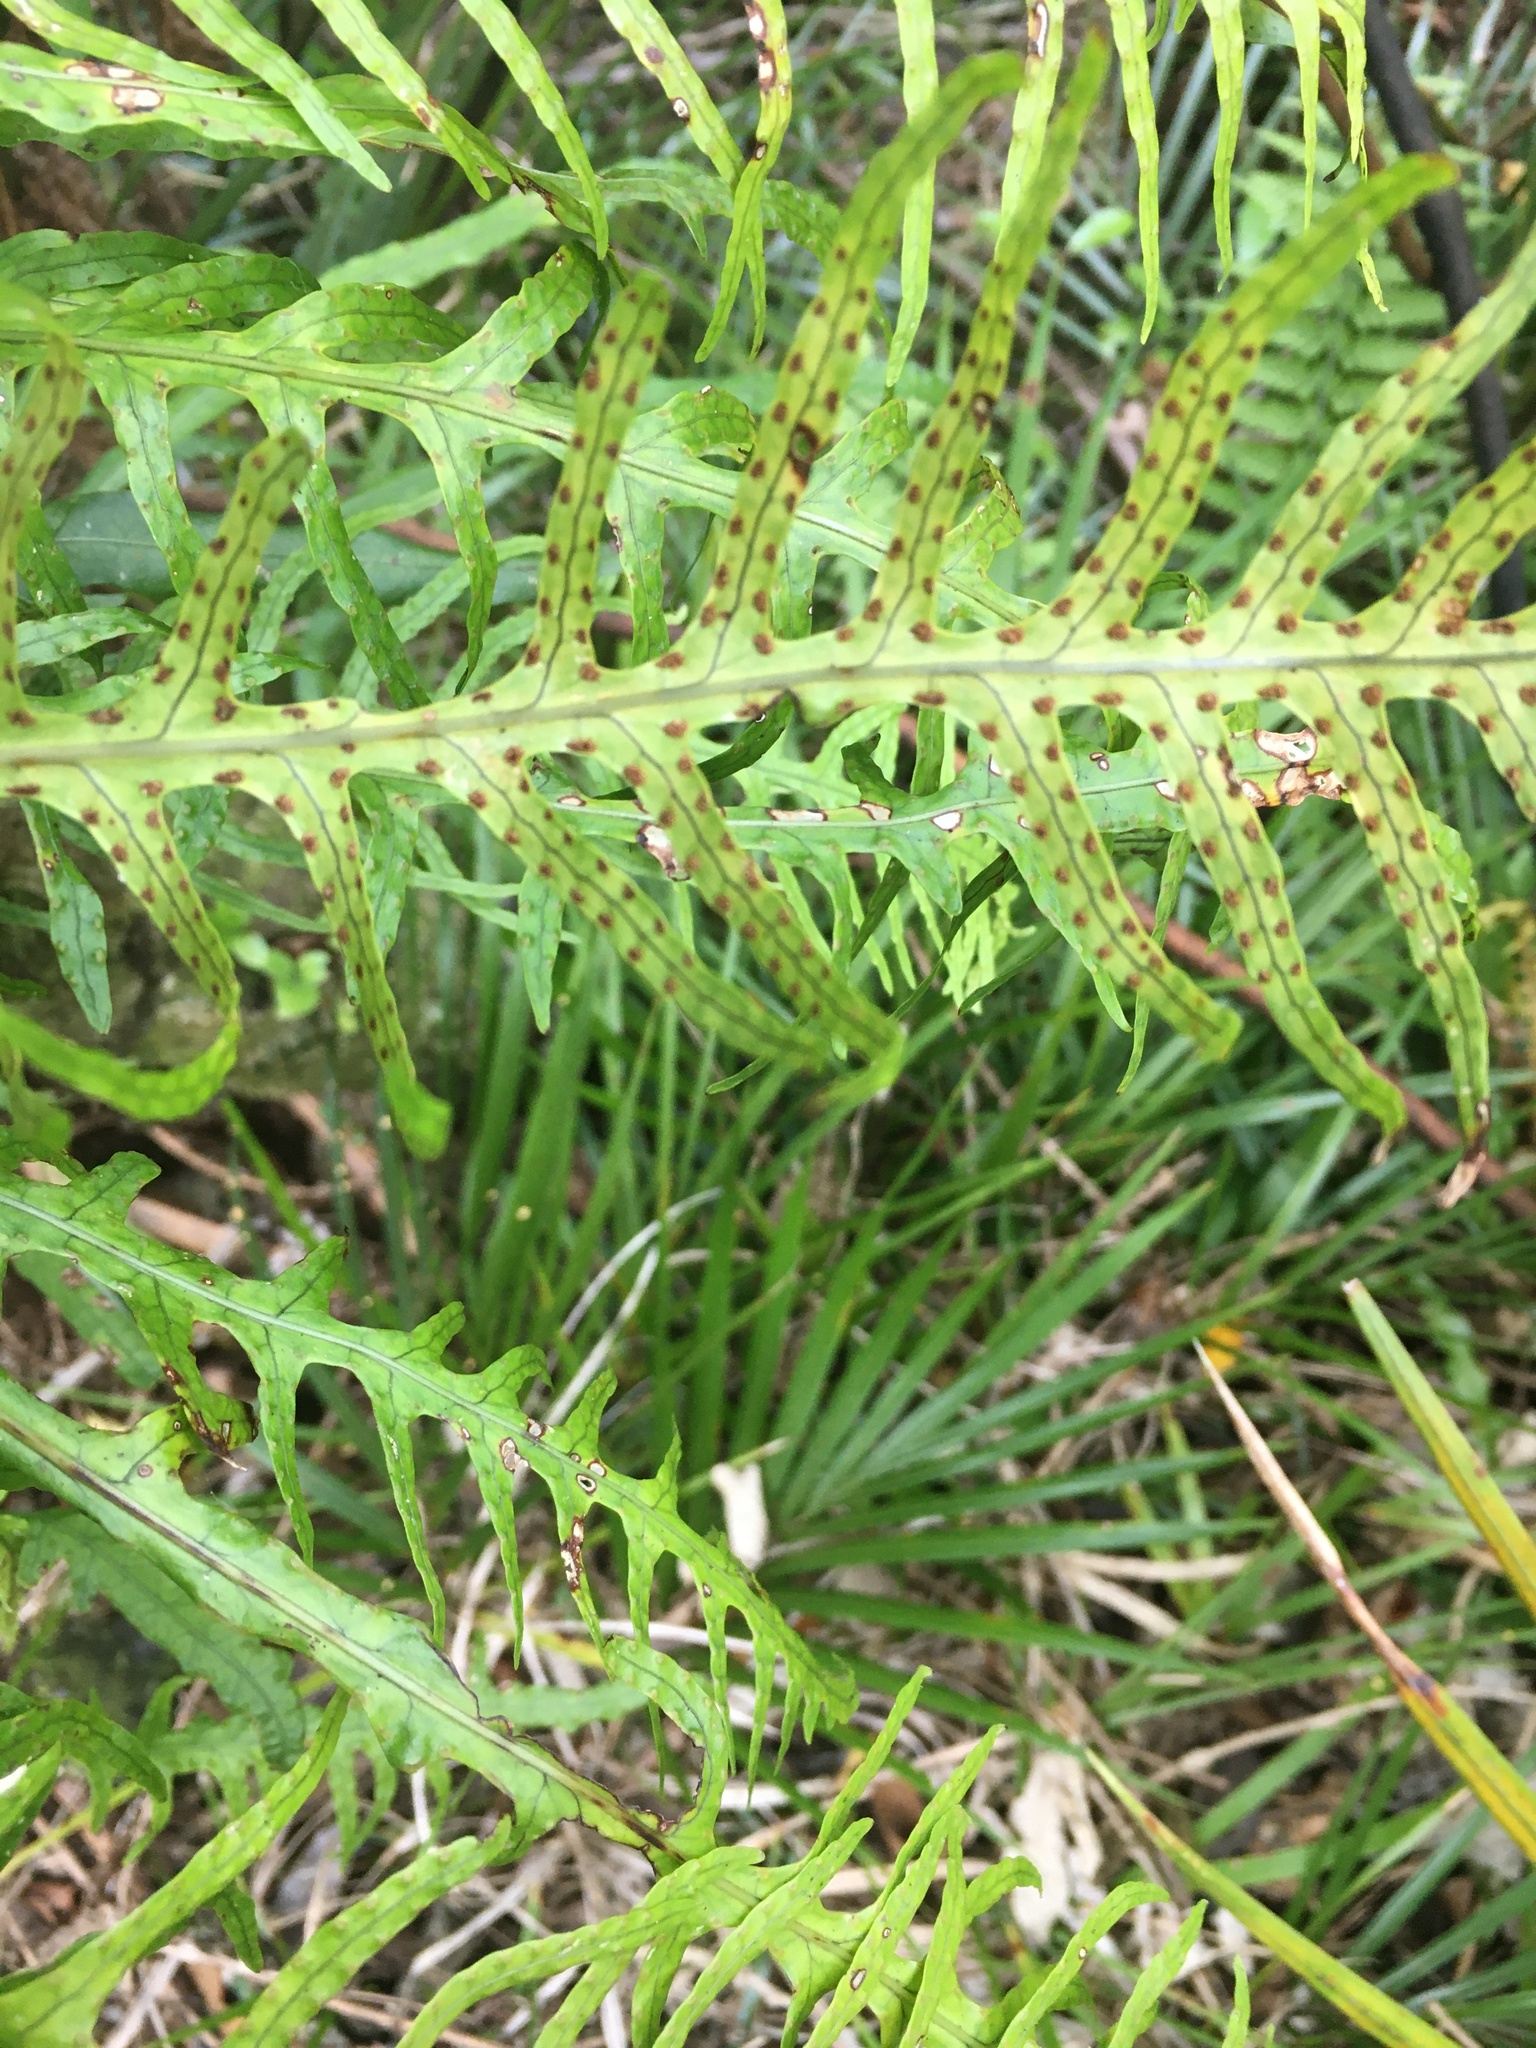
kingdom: Plantae
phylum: Tracheophyta
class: Polypodiopsida
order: Polypodiales
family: Polypodiaceae
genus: Lecanopteris
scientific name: Lecanopteris scandens
